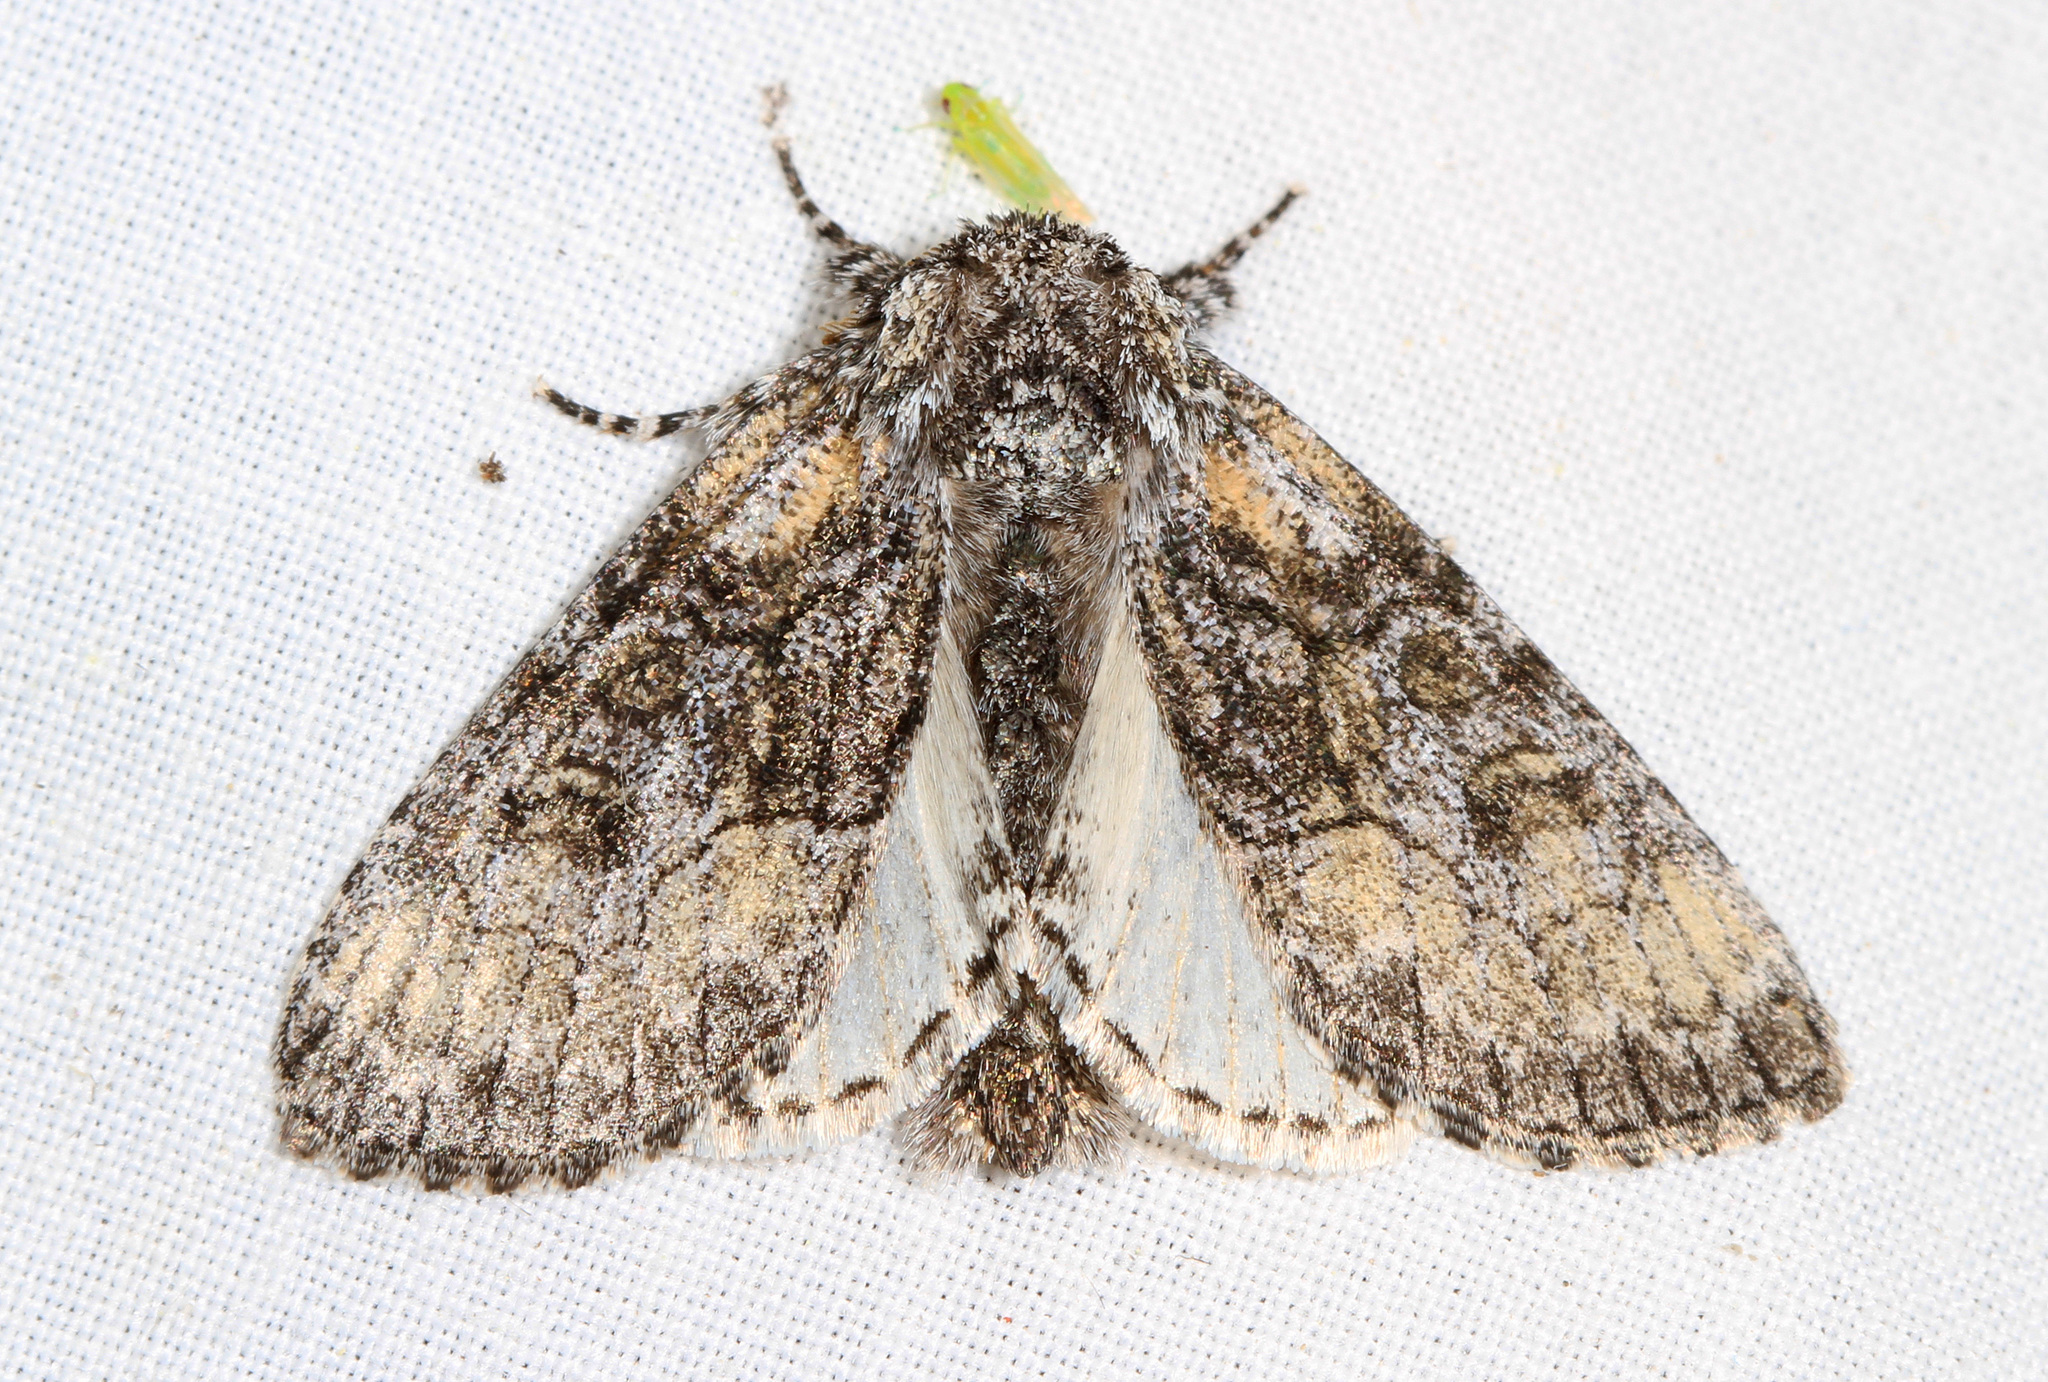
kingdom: Animalia
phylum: Arthropoda
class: Insecta
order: Lepidoptera
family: Noctuidae
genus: Raphia
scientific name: Raphia frater
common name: Brother
